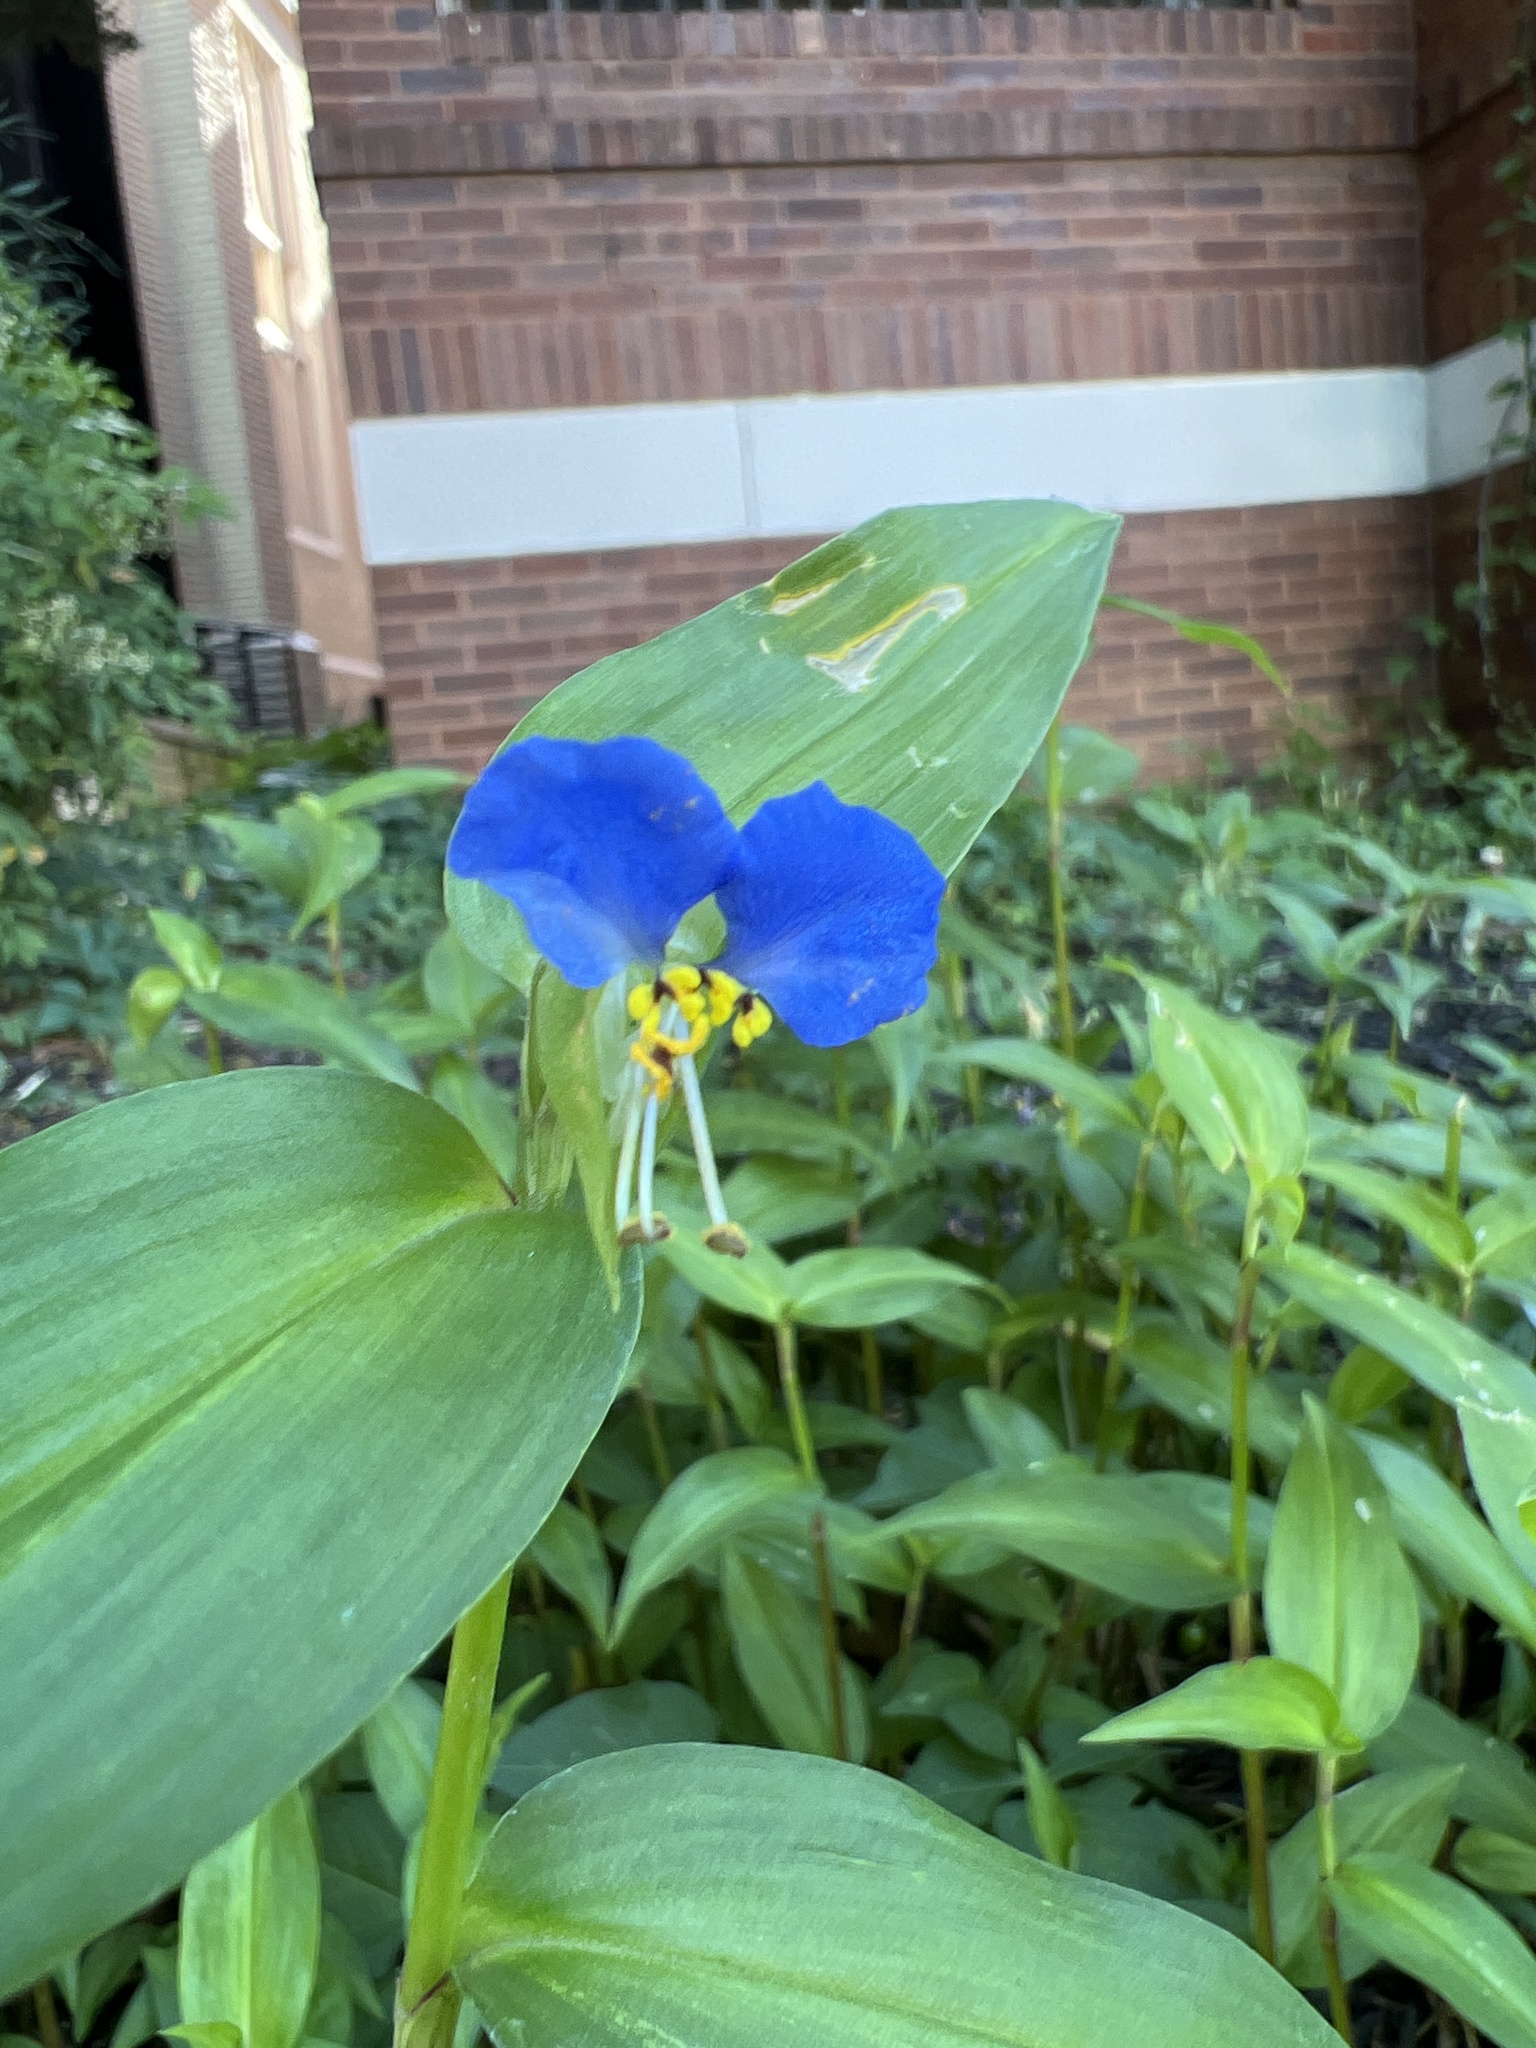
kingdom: Plantae
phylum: Tracheophyta
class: Liliopsida
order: Commelinales
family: Commelinaceae
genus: Commelina
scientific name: Commelina communis
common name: Asiatic dayflower
